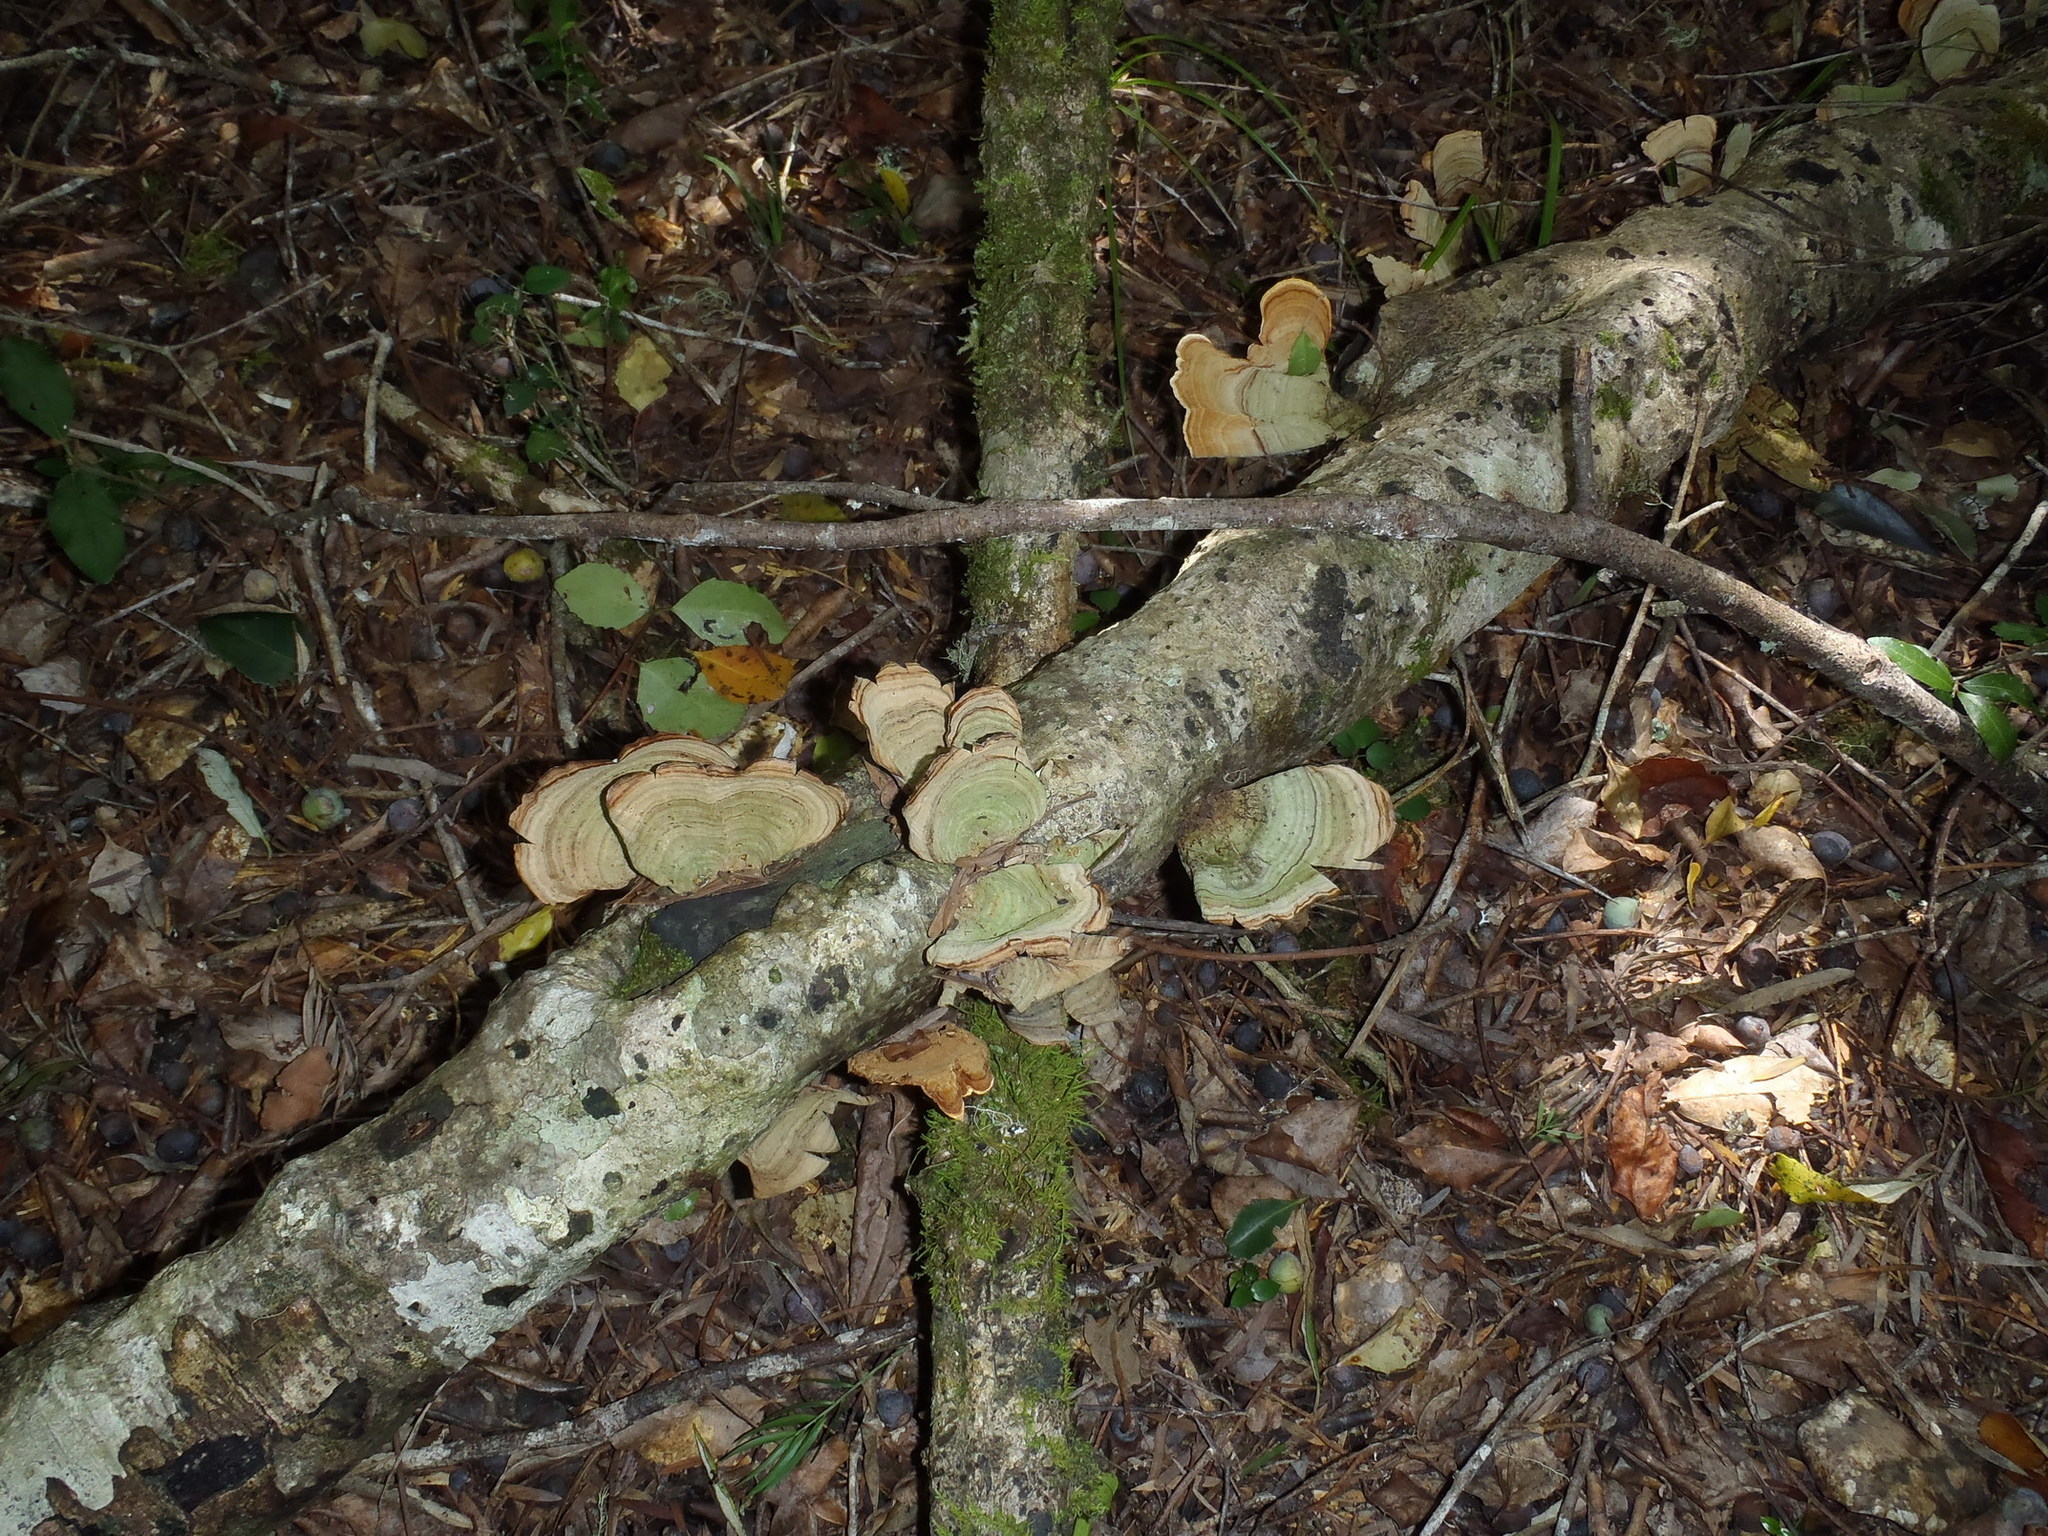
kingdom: Fungi
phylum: Basidiomycota
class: Agaricomycetes
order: Polyporales
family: Polyporaceae
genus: Trametes
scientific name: Trametes versicolor
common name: Turkeytail
